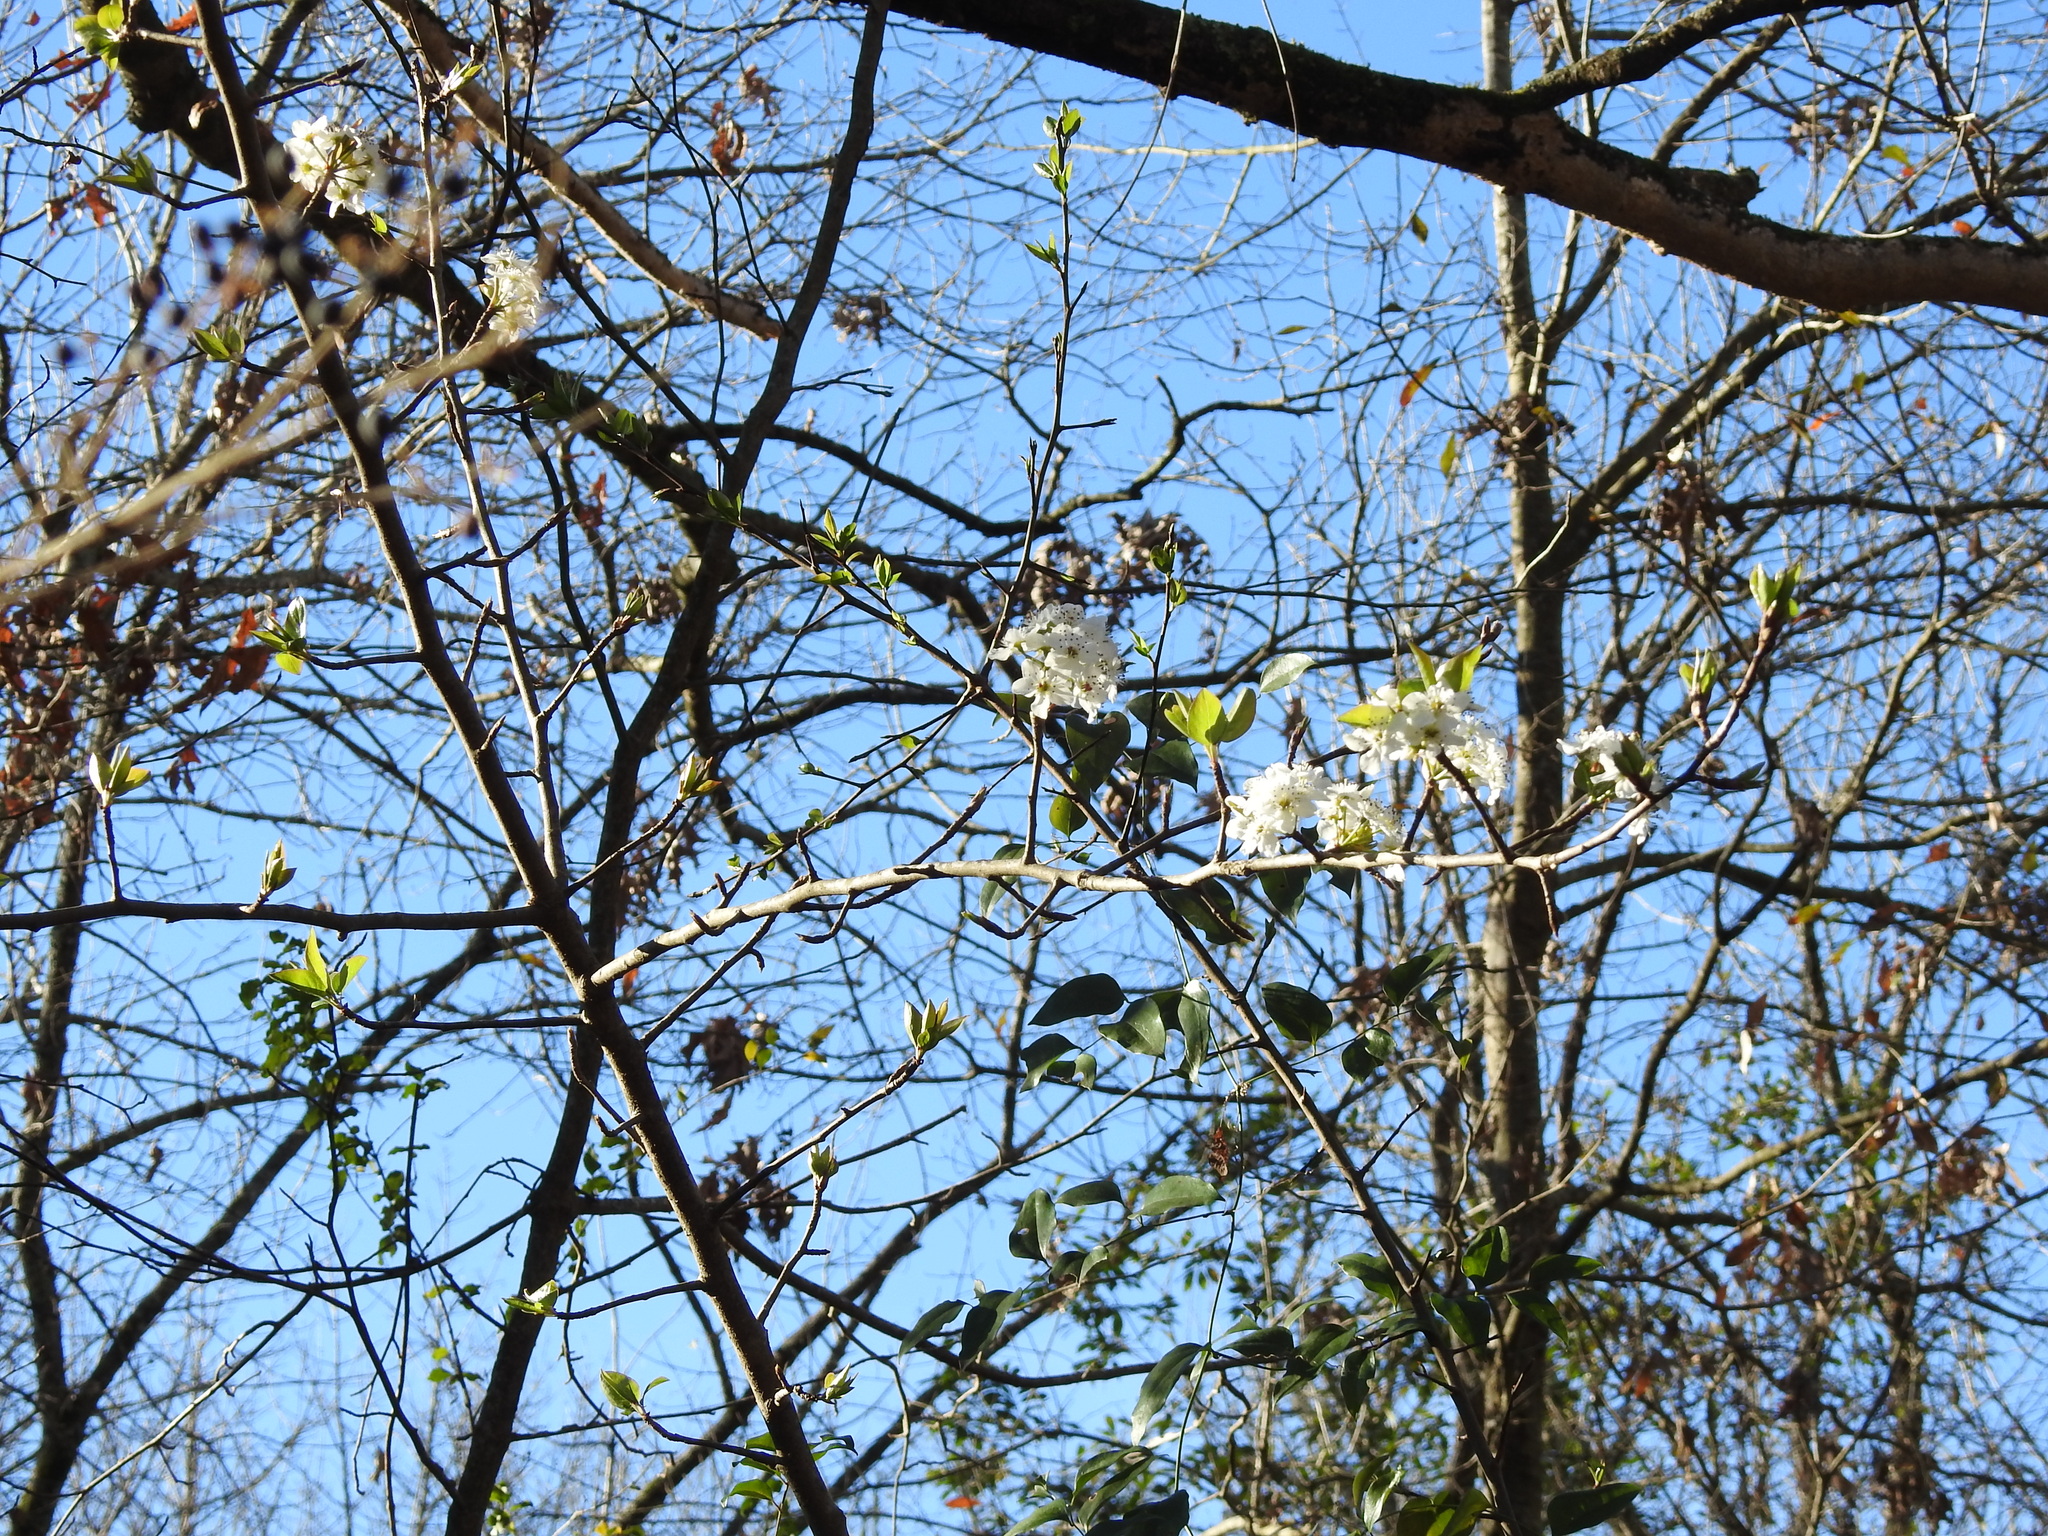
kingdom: Plantae
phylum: Tracheophyta
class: Magnoliopsida
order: Rosales
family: Rosaceae
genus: Pyrus
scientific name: Pyrus calleryana
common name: Callery pear
